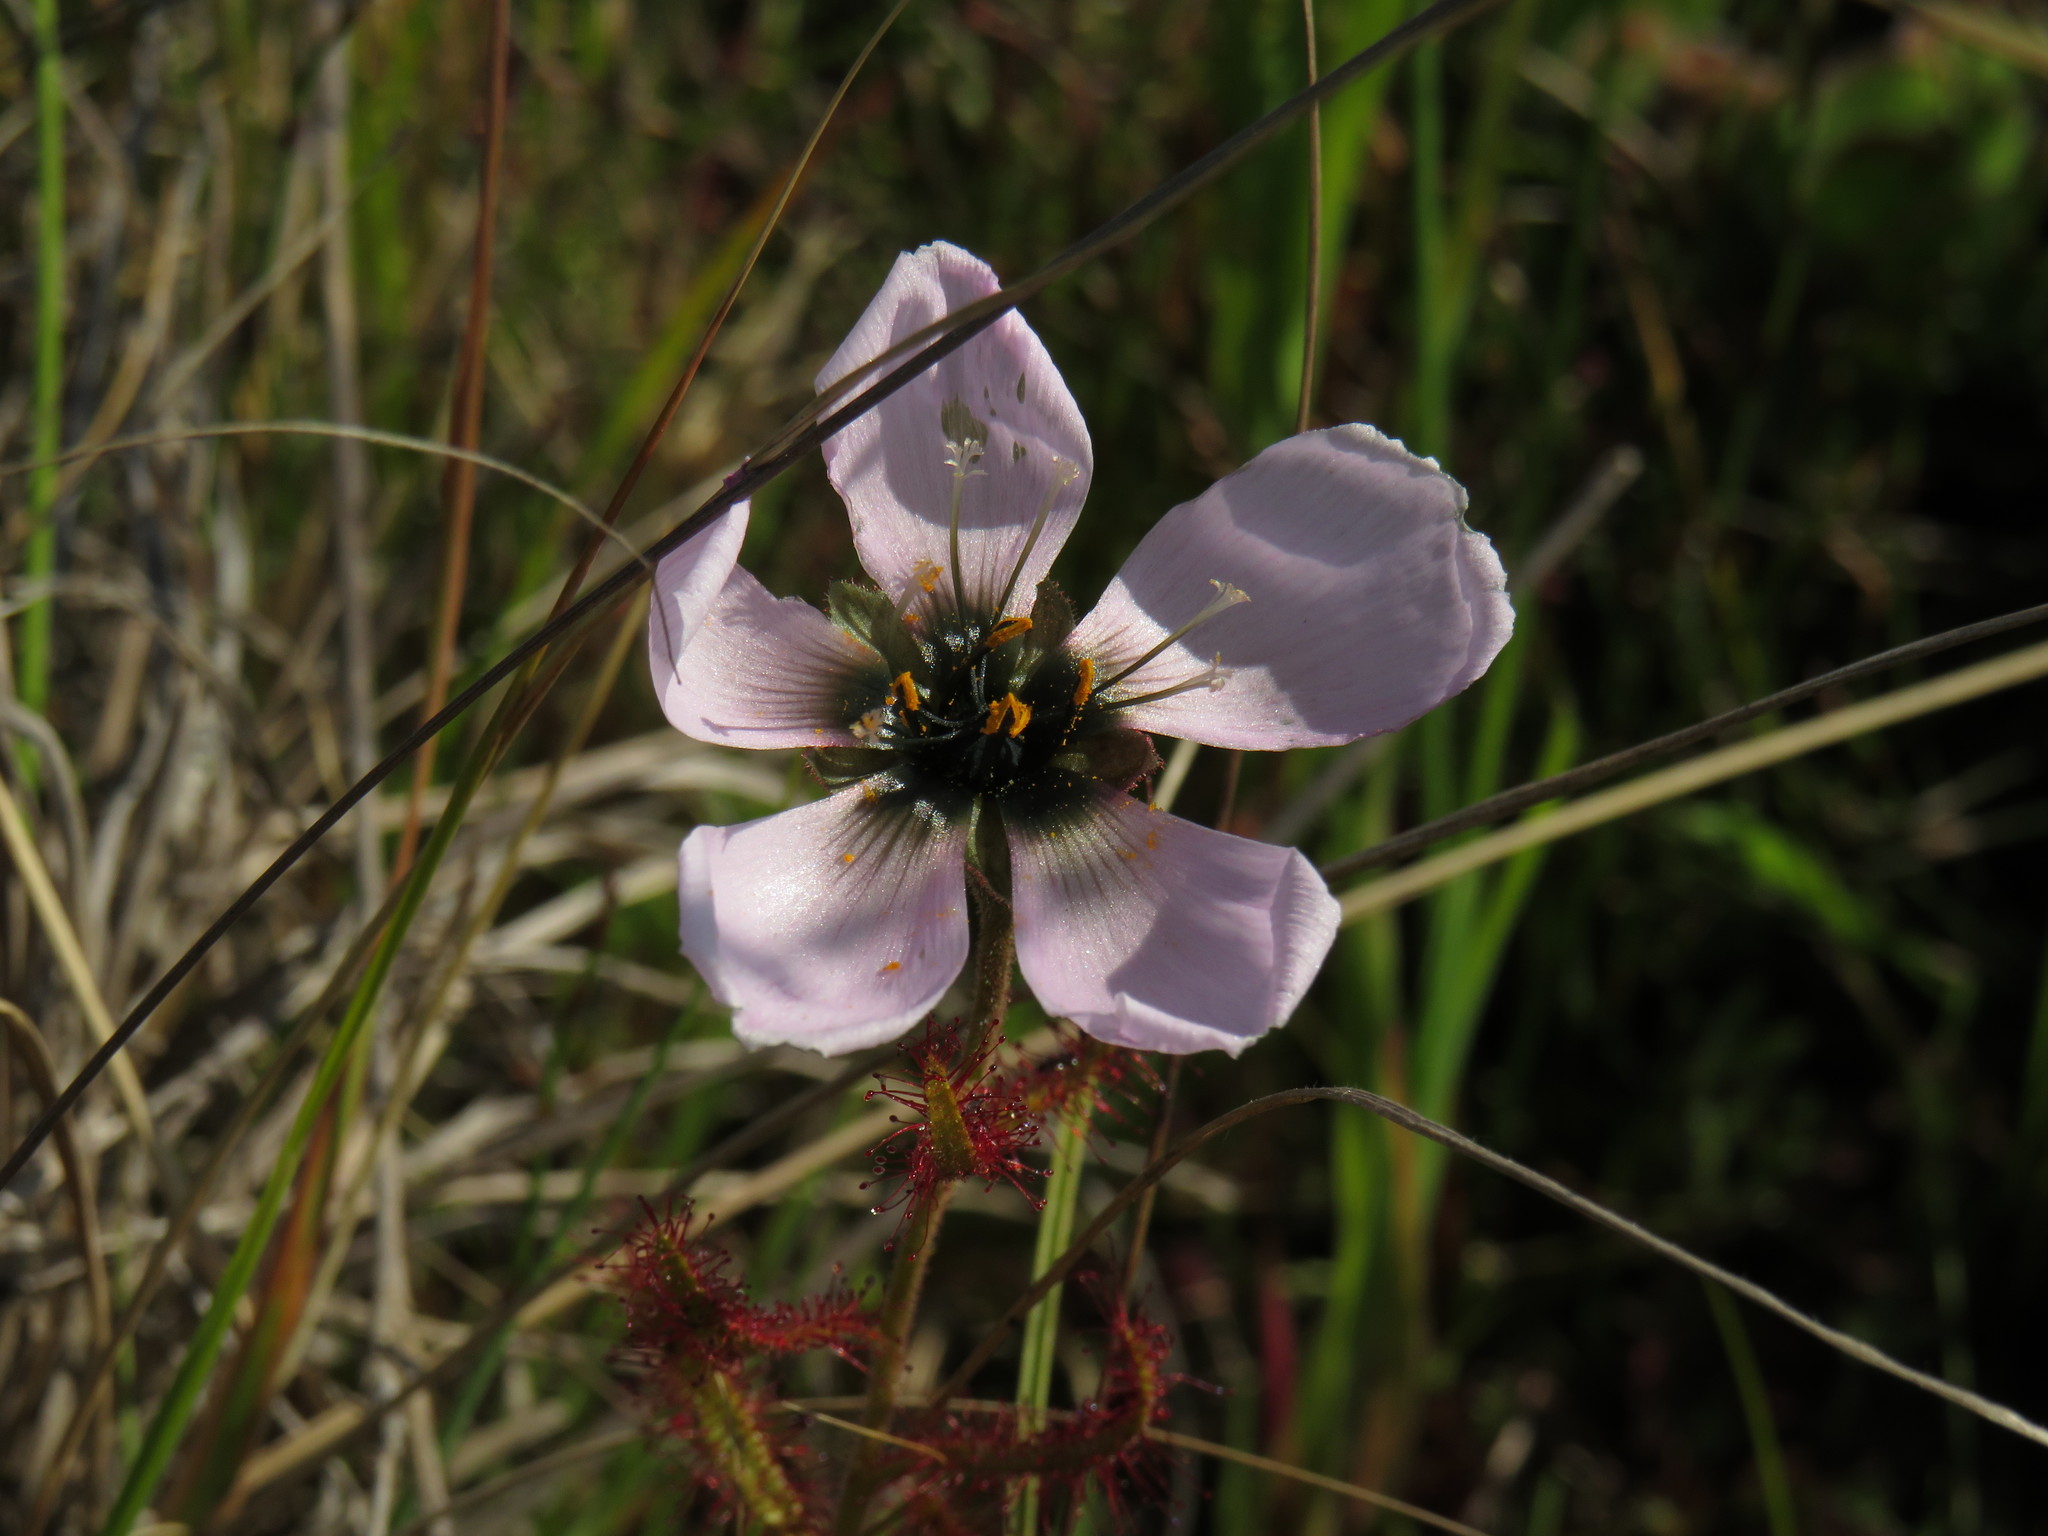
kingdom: Plantae
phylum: Tracheophyta
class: Magnoliopsida
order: Caryophyllales
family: Droseraceae
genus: Drosera
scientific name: Drosera cistiflora
